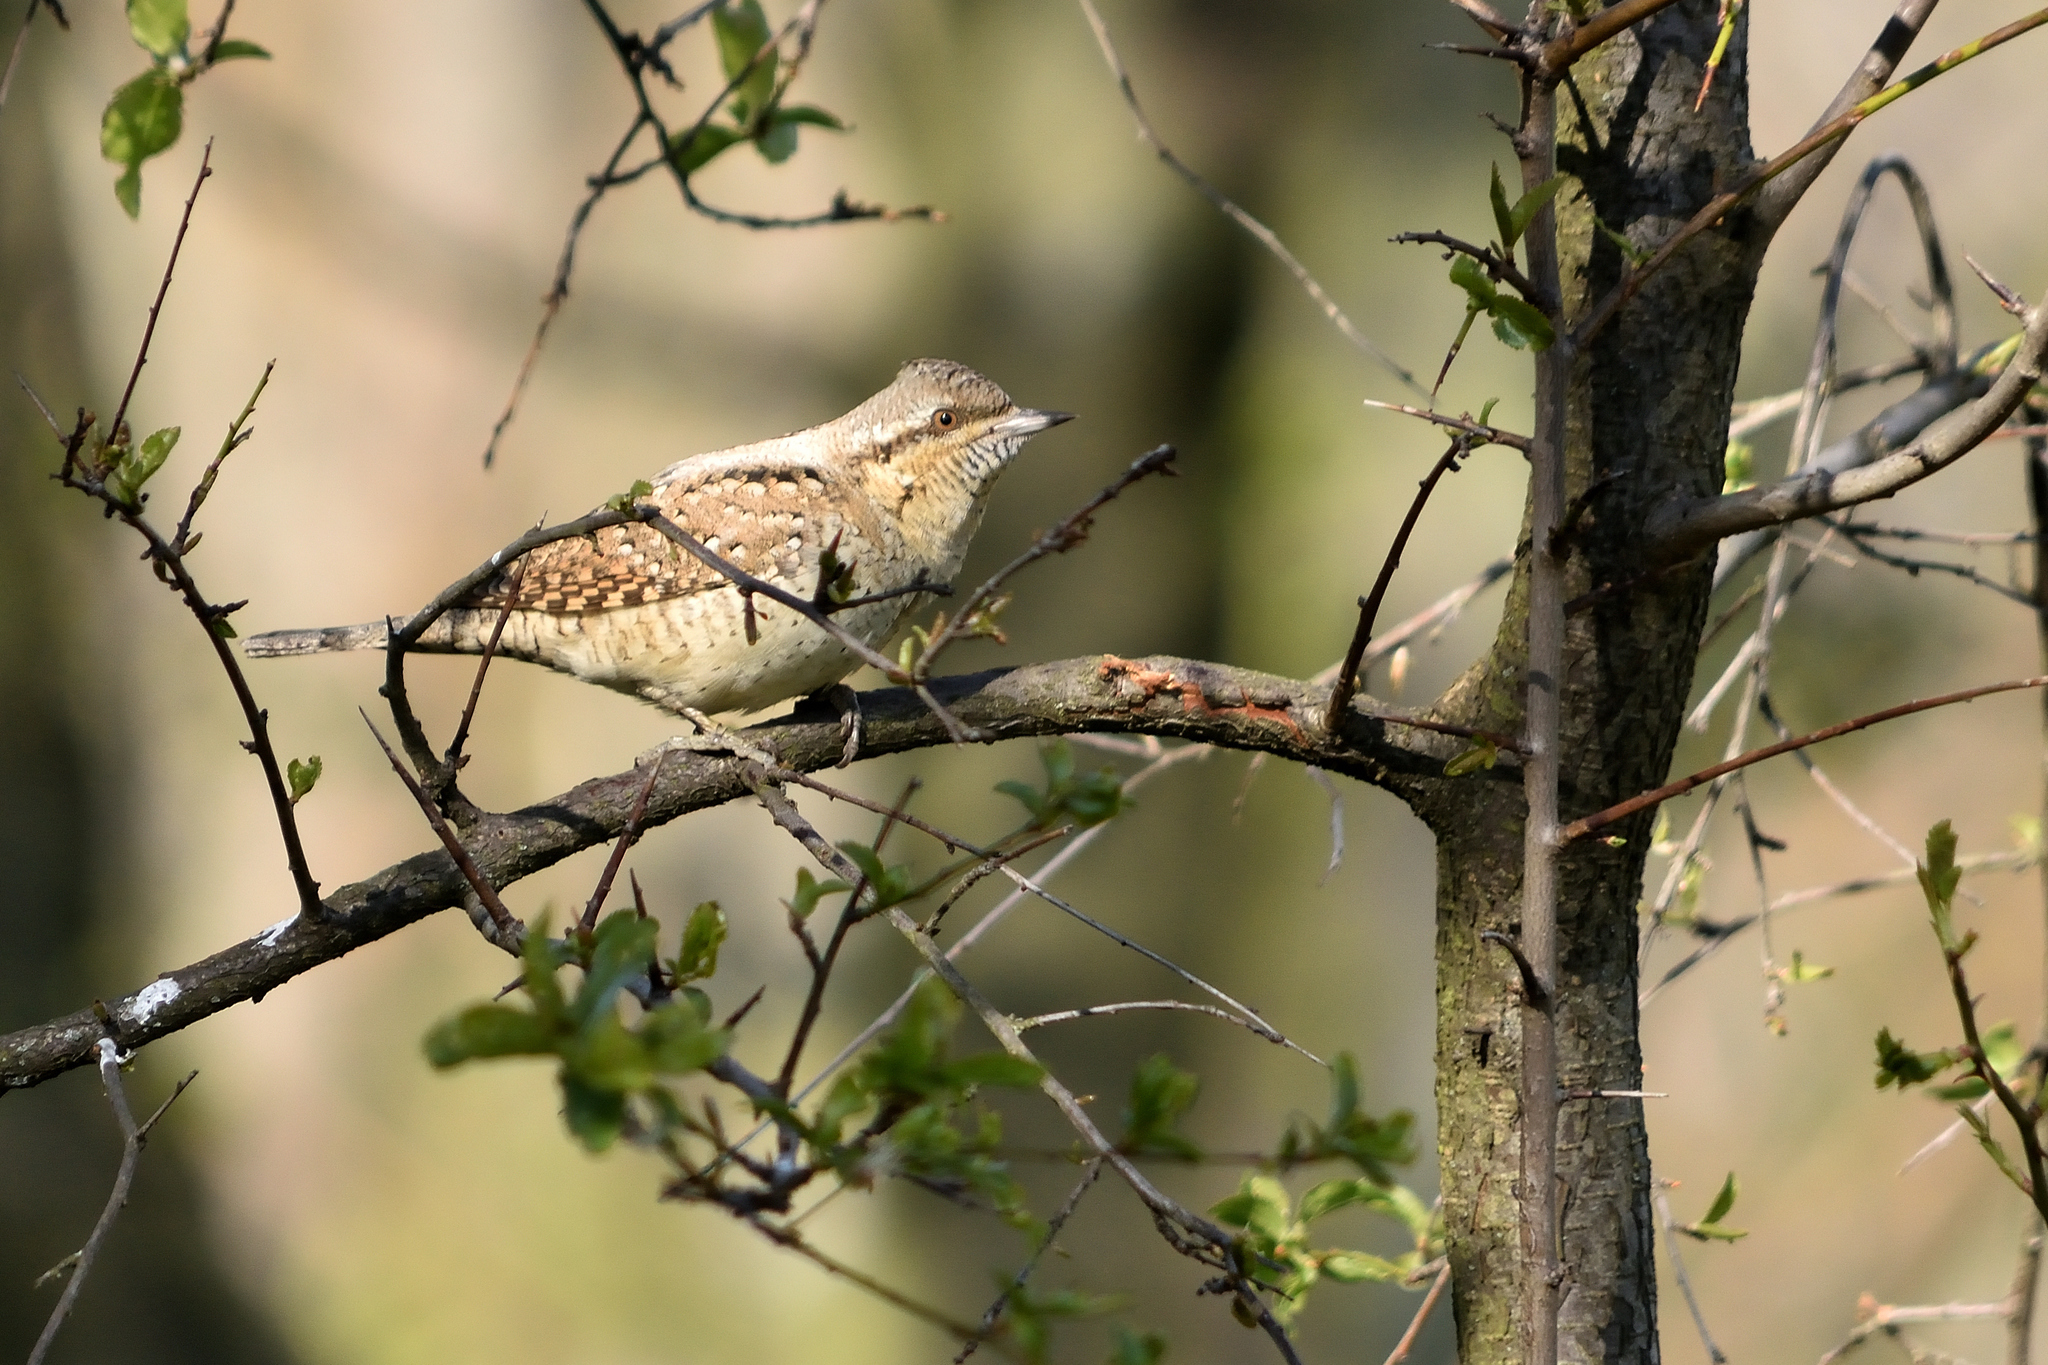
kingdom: Animalia
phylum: Chordata
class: Aves
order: Piciformes
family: Picidae
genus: Jynx
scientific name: Jynx torquilla
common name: Eurasian wryneck
